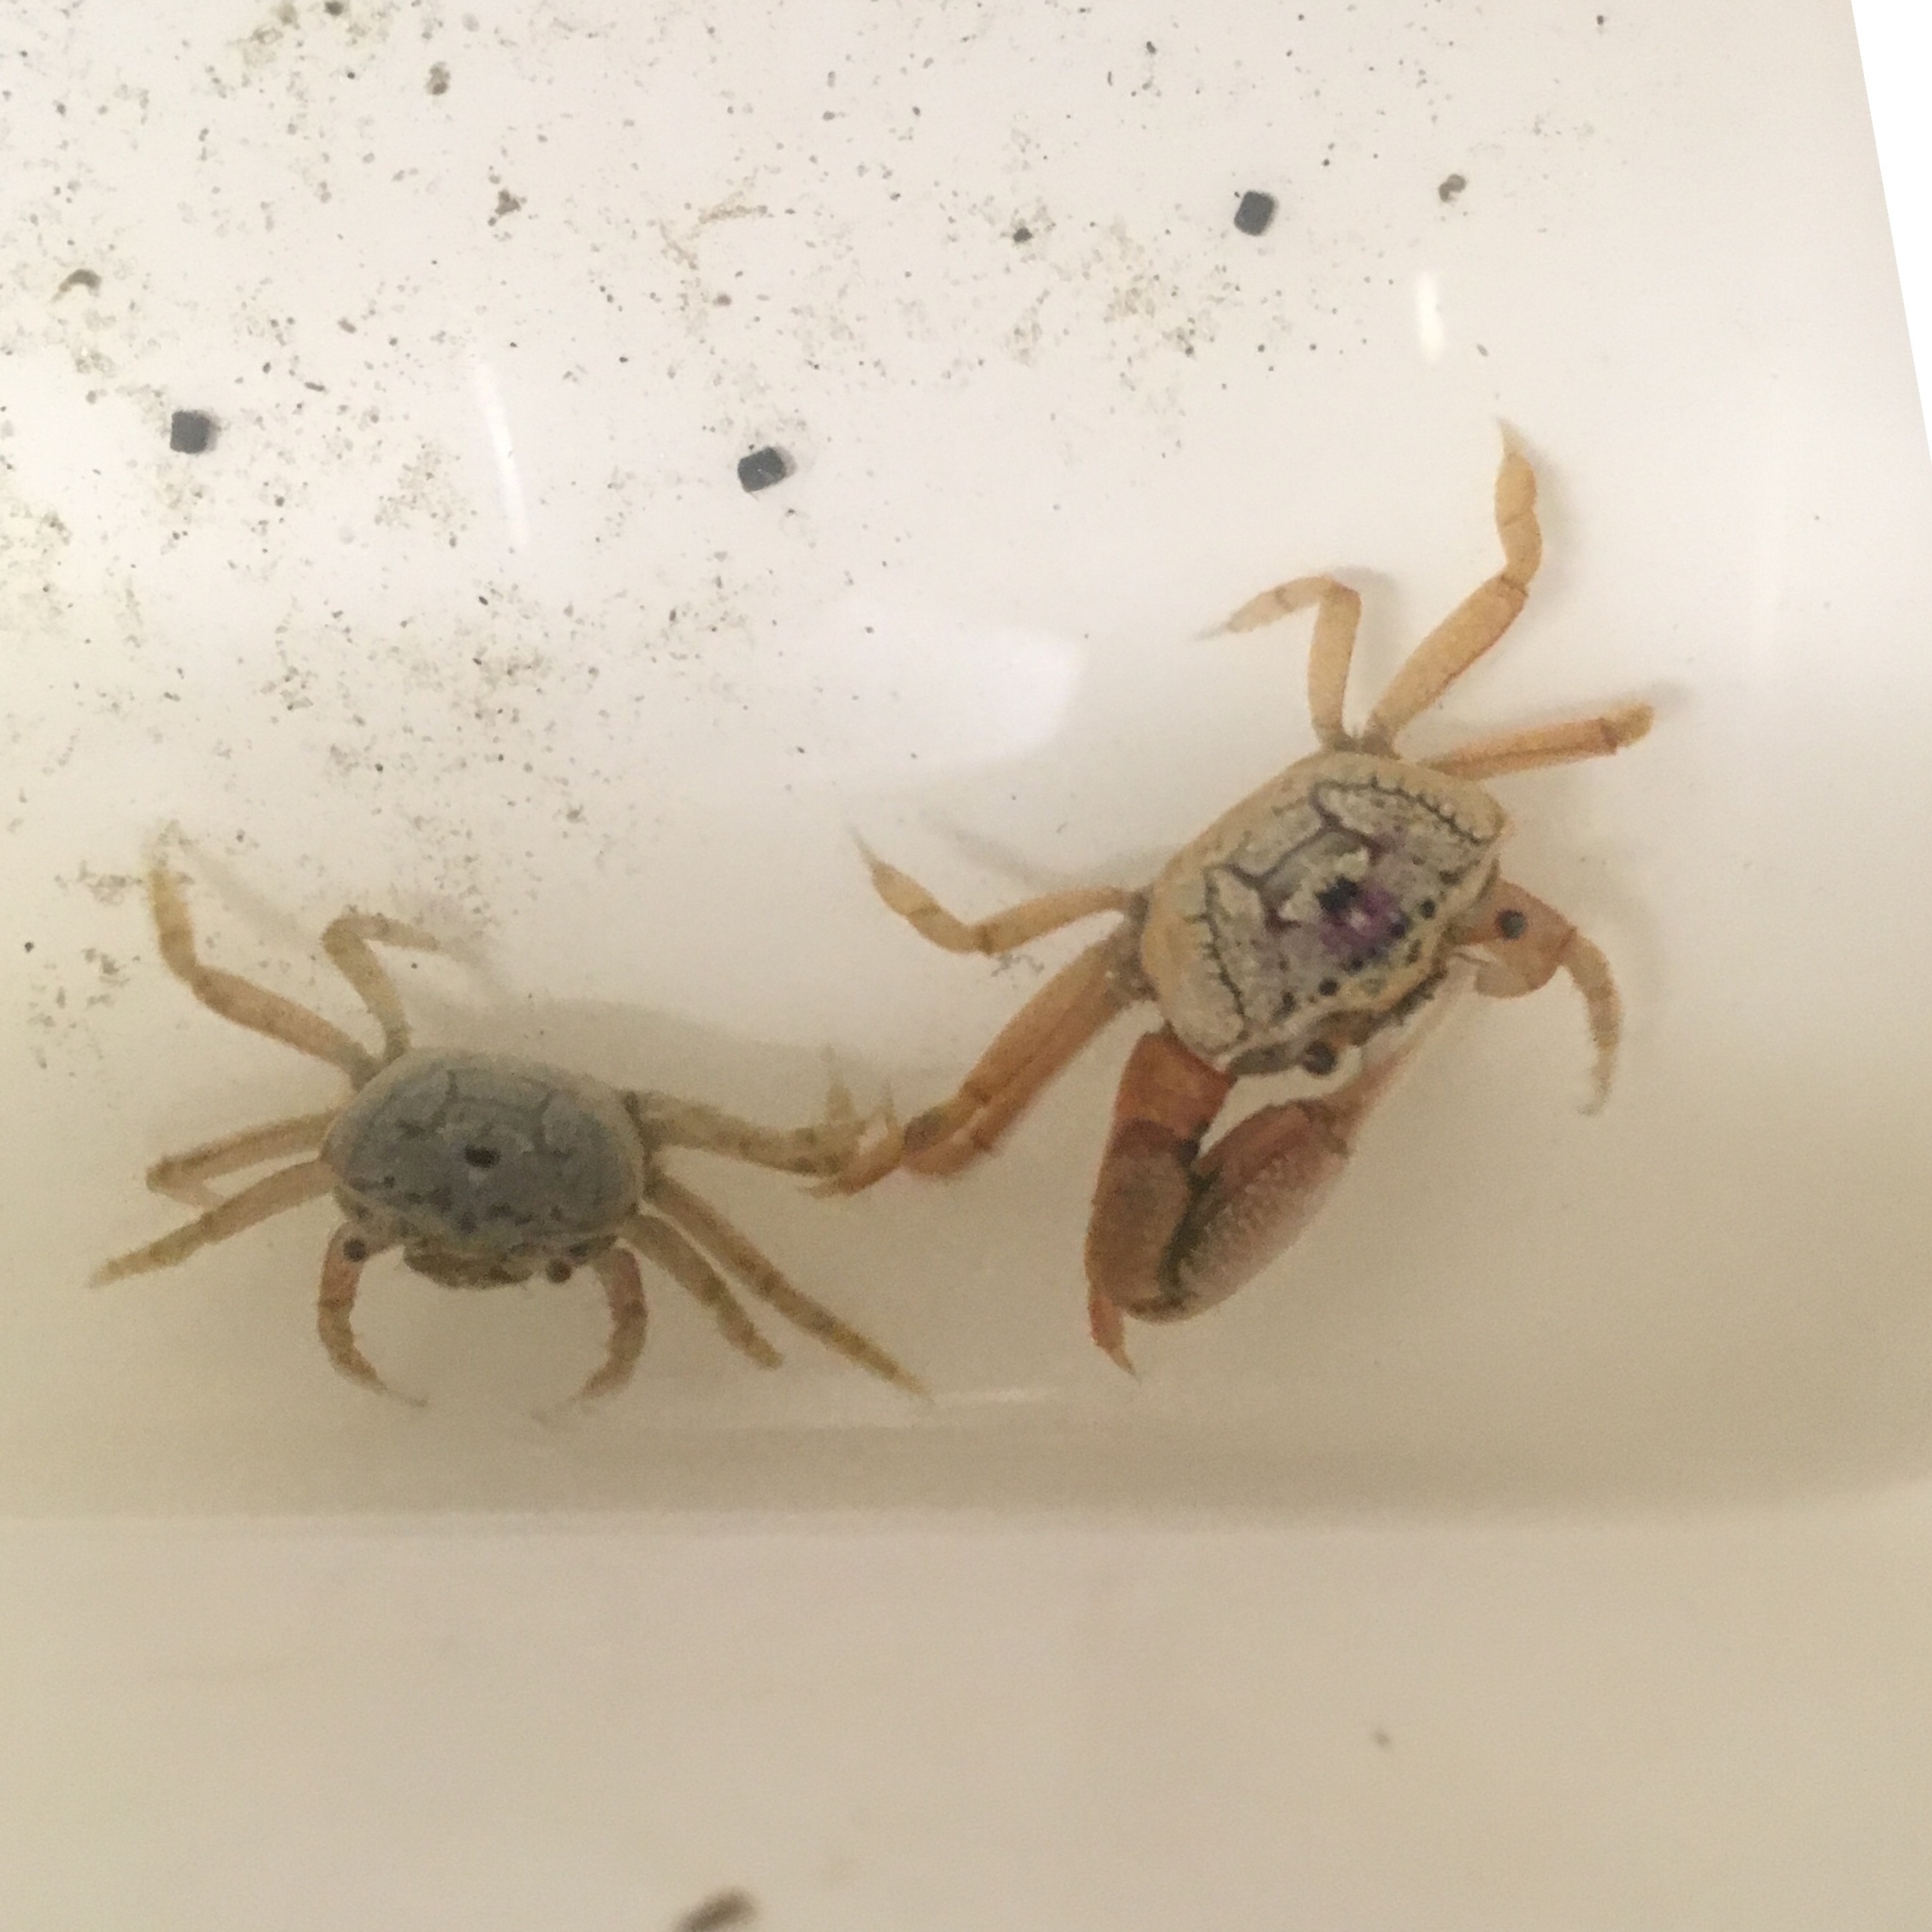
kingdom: Animalia
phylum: Arthropoda
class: Malacostraca
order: Decapoda
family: Ocypodidae
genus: Leptuca
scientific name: Leptuca pugilator
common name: Atlantic sand fiddler crab
